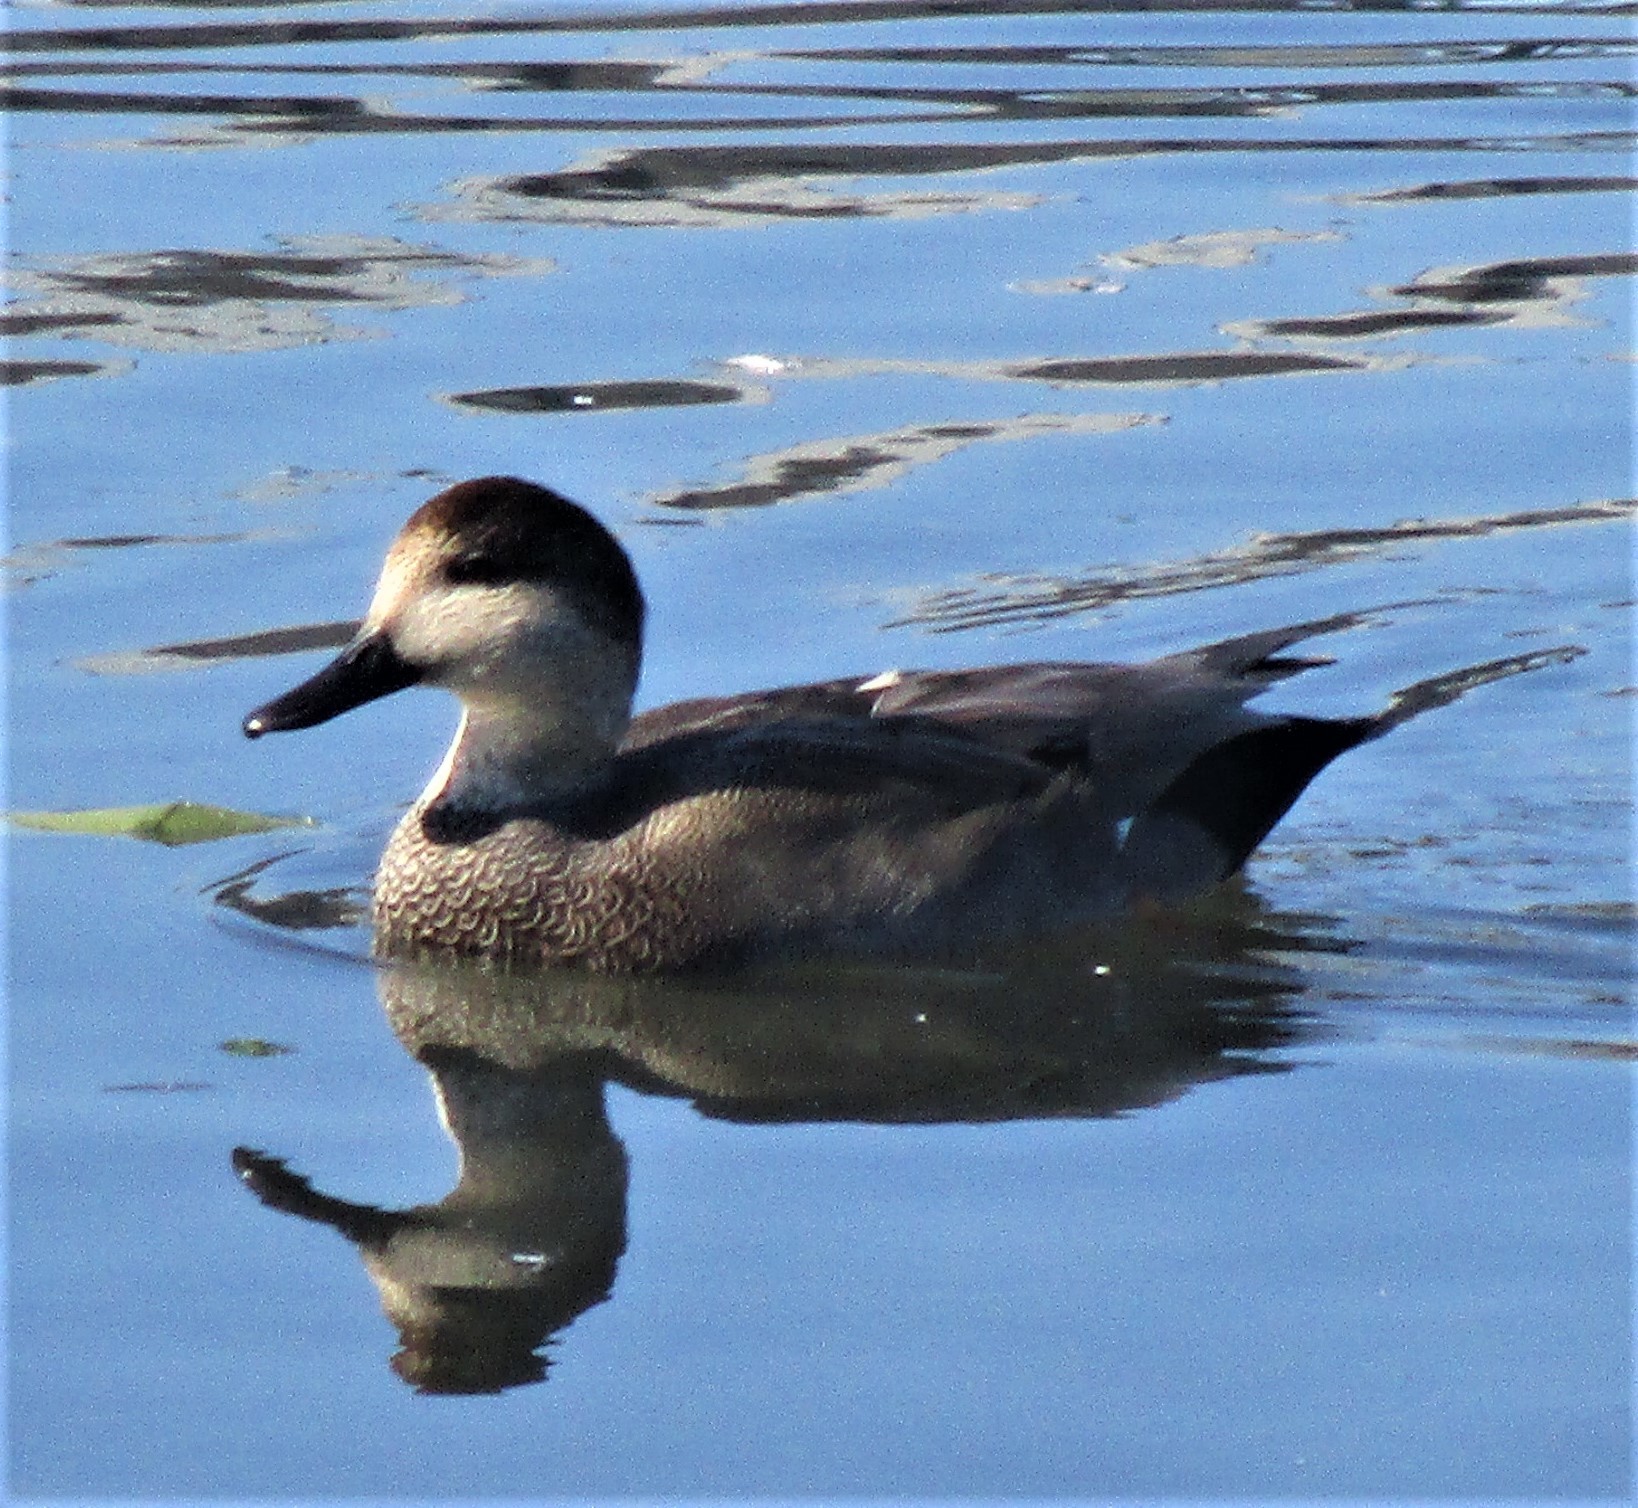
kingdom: Animalia
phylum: Chordata
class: Aves
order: Anseriformes
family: Anatidae
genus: Mareca
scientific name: Mareca strepera
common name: Gadwall
